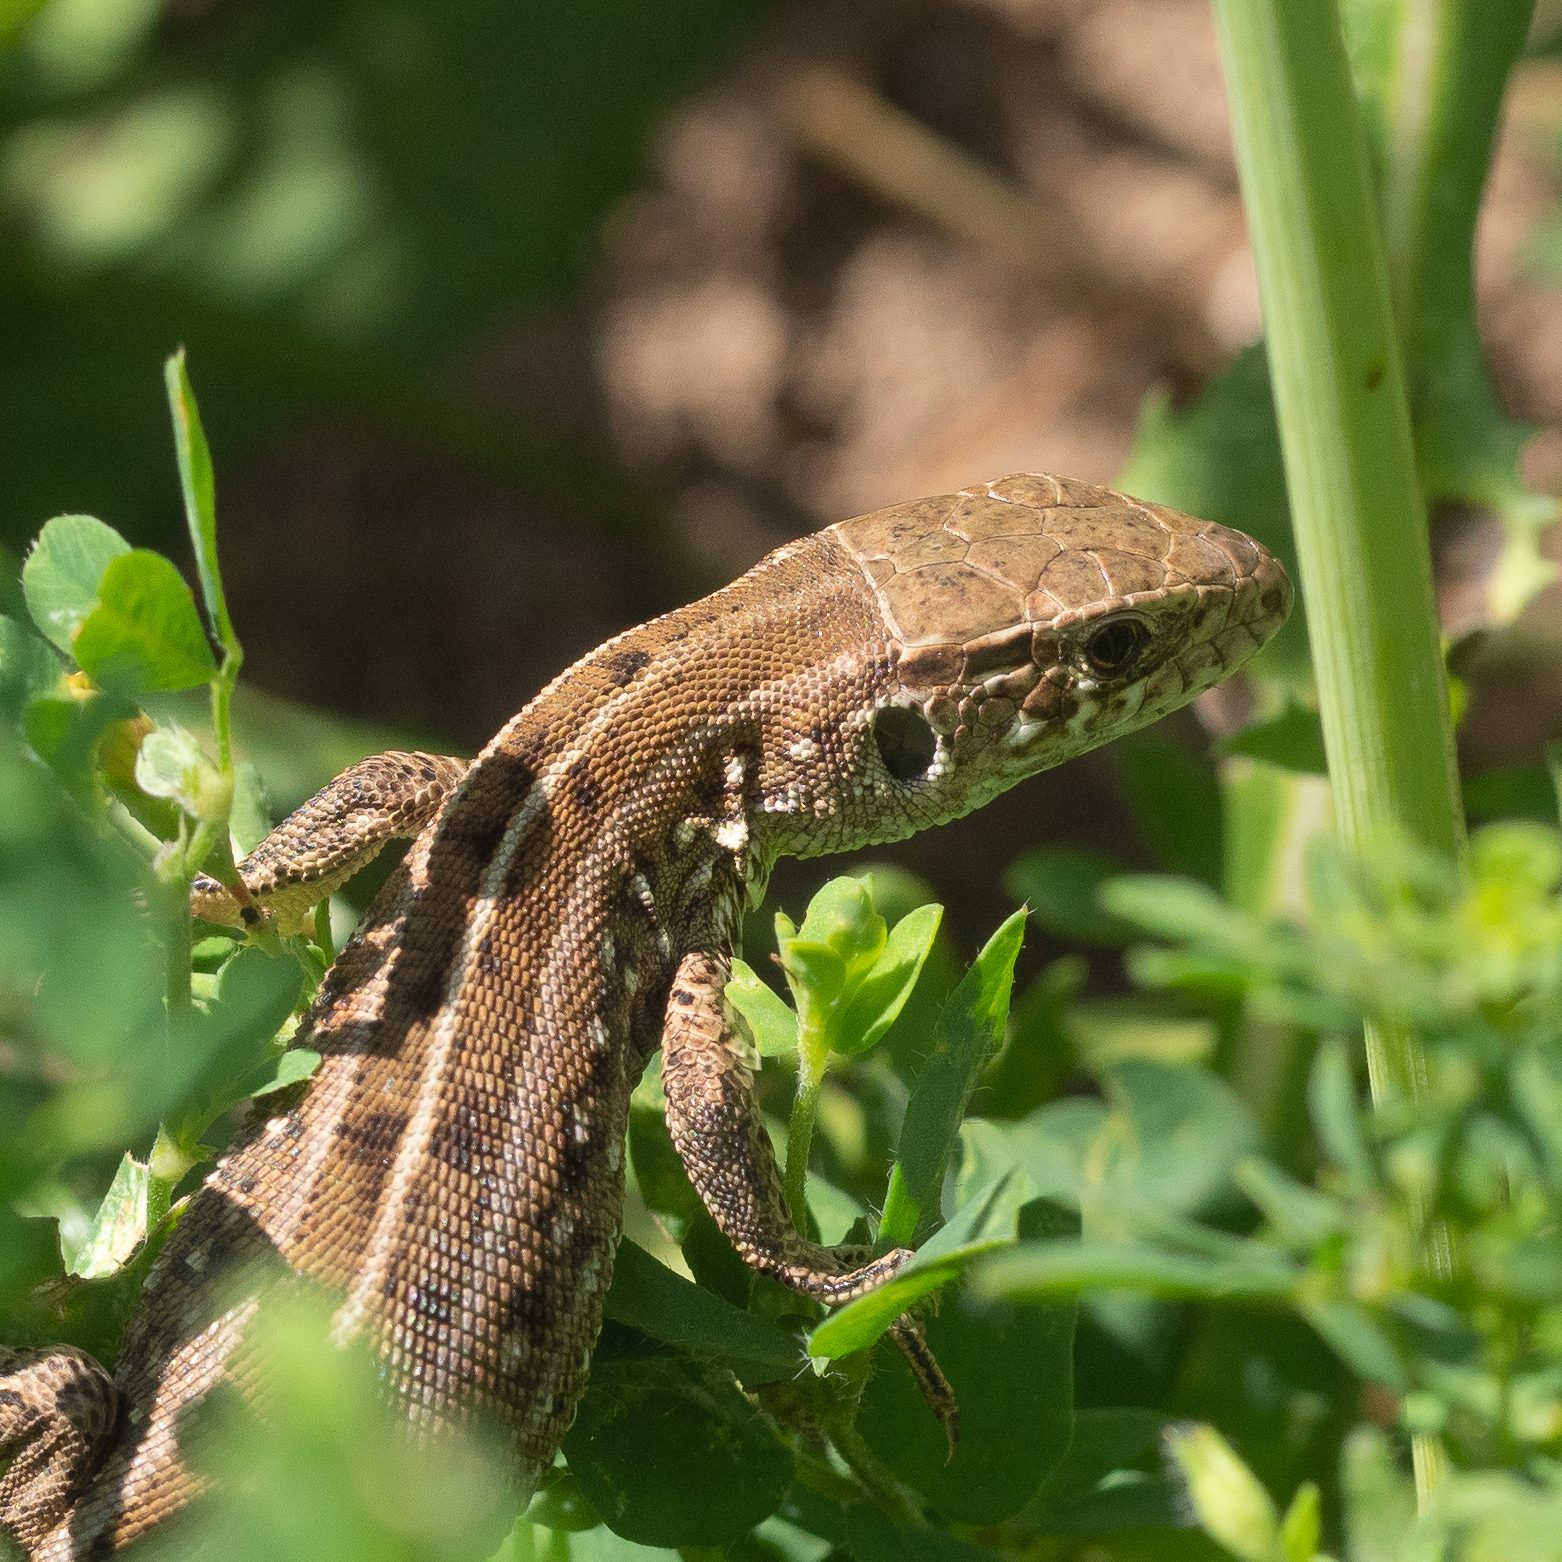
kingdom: Animalia
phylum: Chordata
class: Squamata
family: Lacertidae
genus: Lacerta
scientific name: Lacerta agilis
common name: Sand lizard
